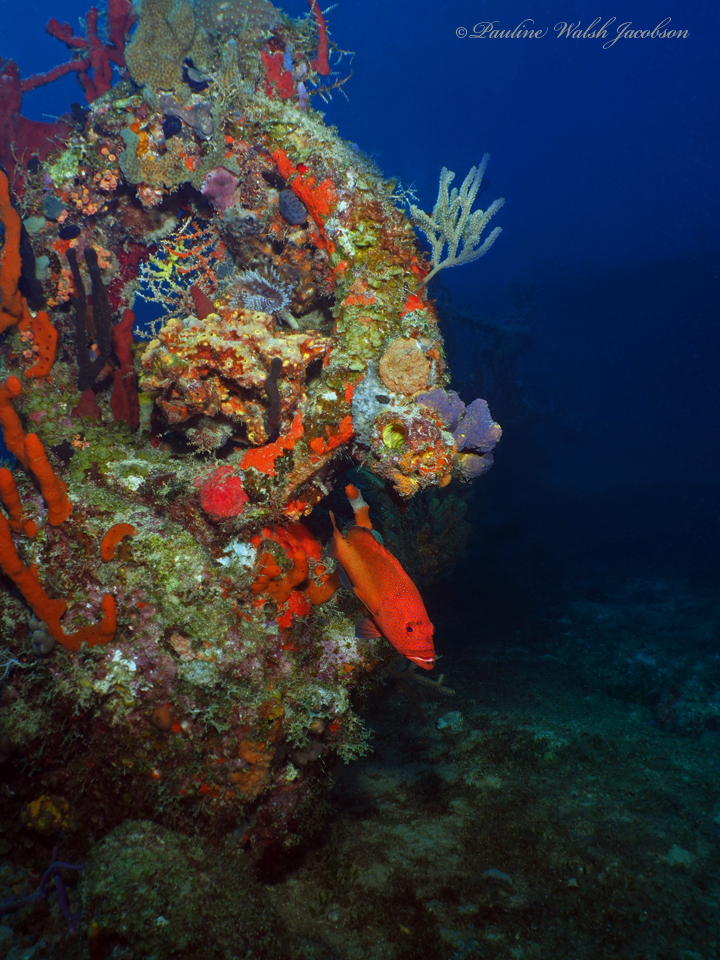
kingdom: Animalia
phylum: Chordata
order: Perciformes
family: Serranidae
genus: Cephalopholis
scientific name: Cephalopholis fulva
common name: Butterfish
